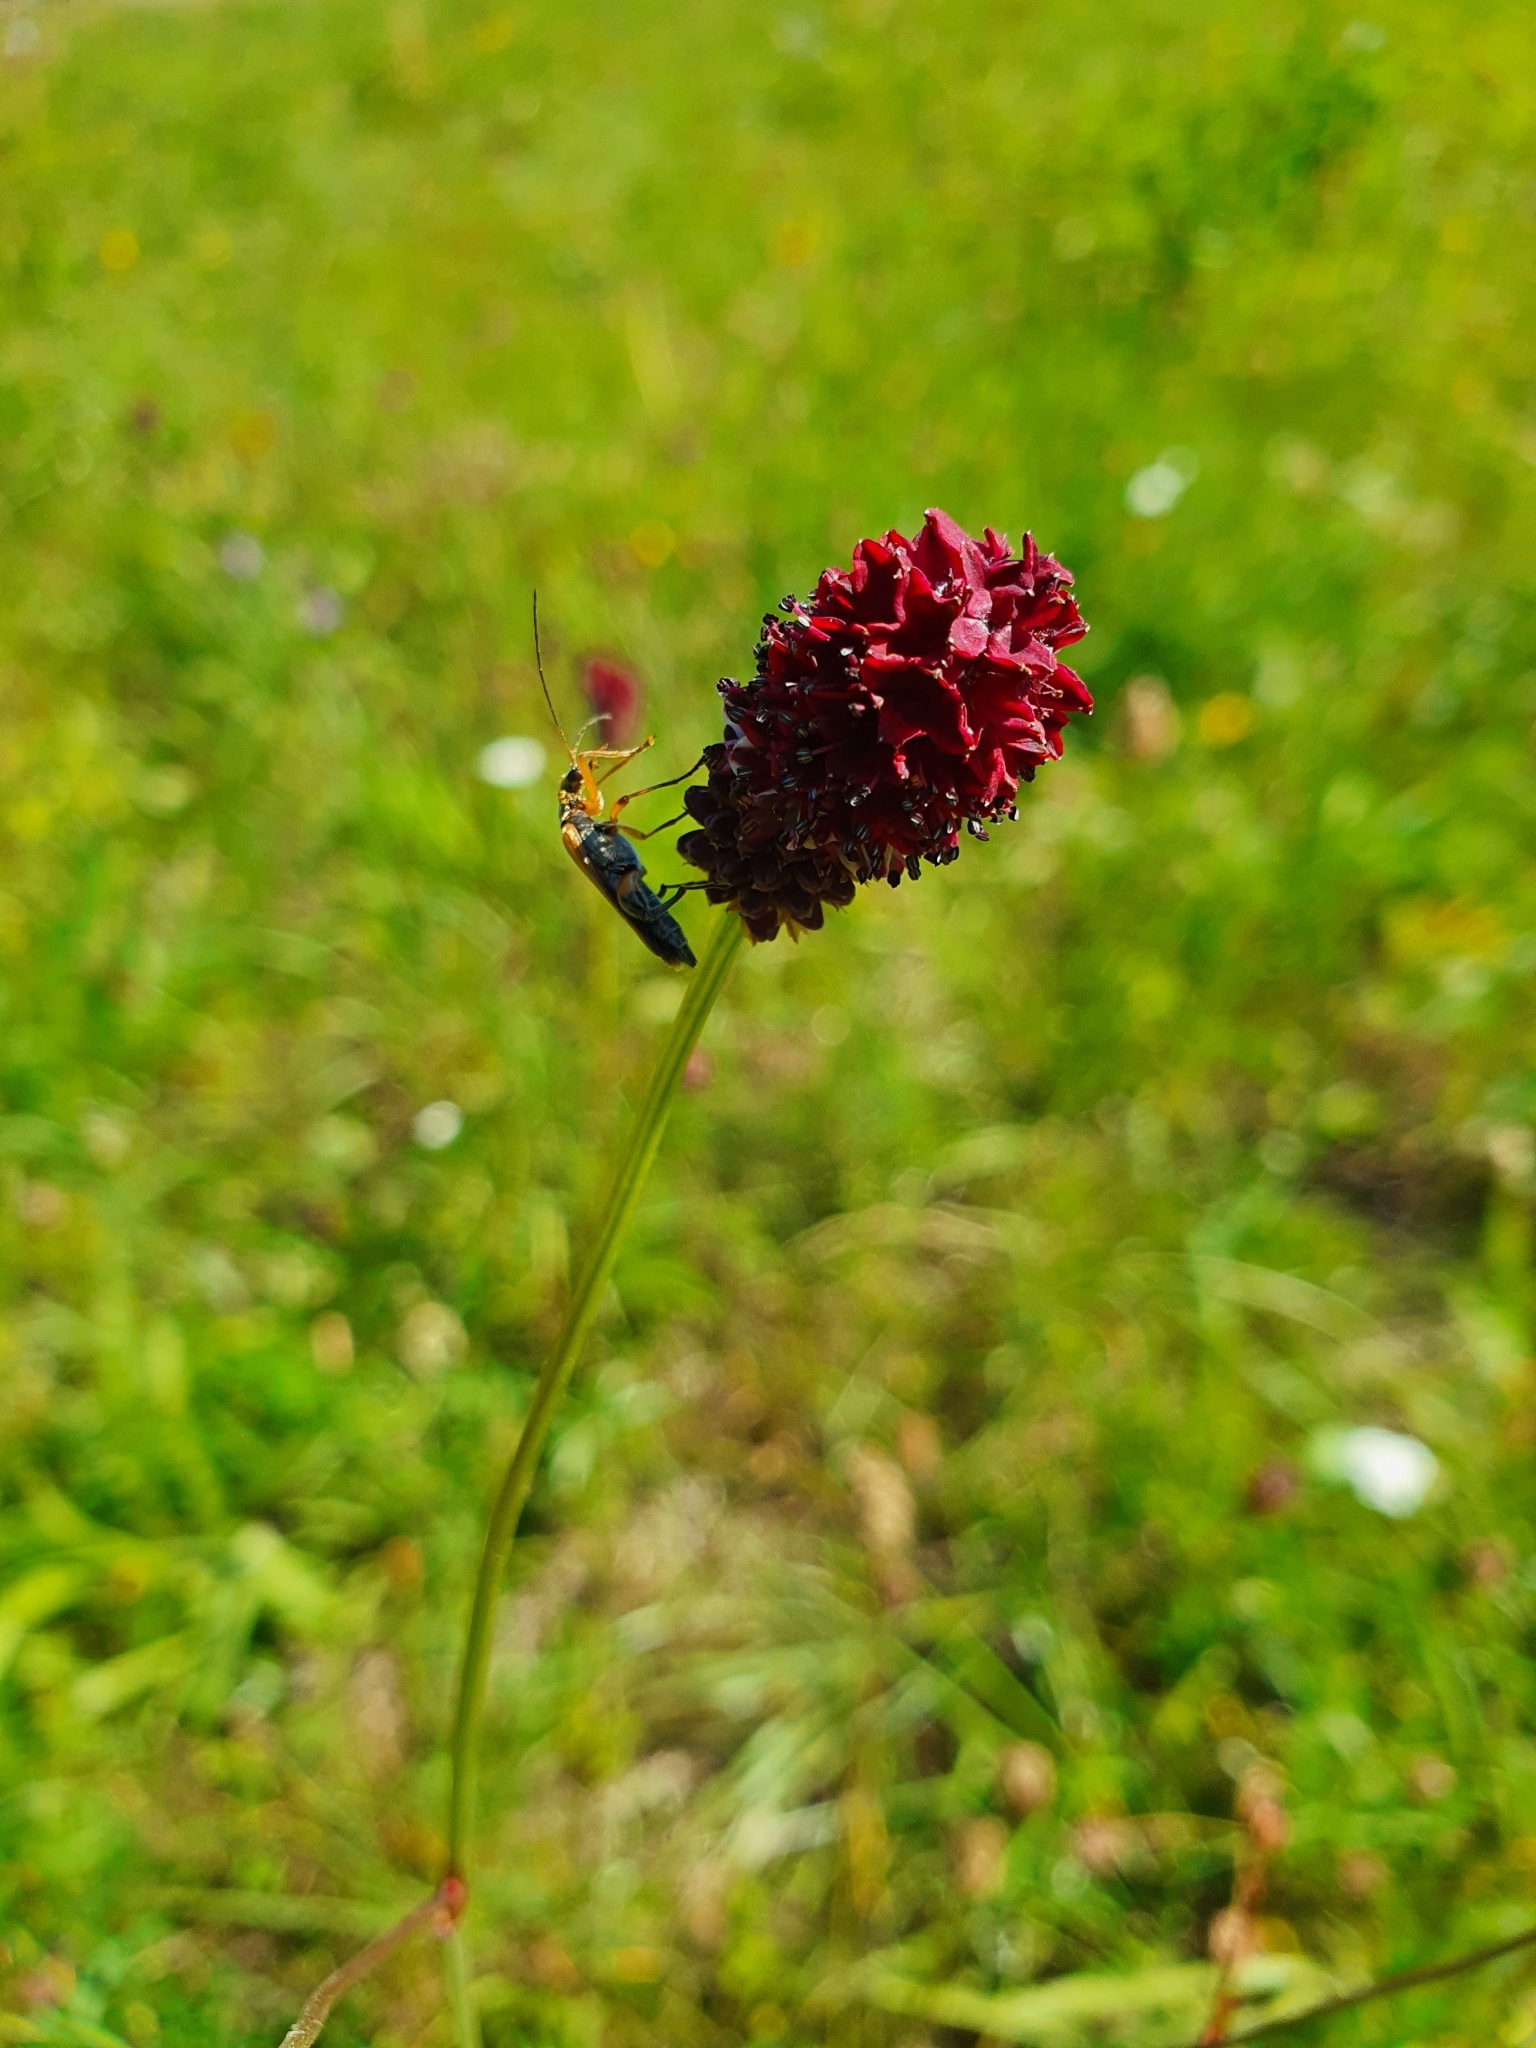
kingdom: Plantae
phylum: Tracheophyta
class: Magnoliopsida
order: Rosales
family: Rosaceae
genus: Sanguisorba
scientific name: Sanguisorba officinalis
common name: Great burnet
